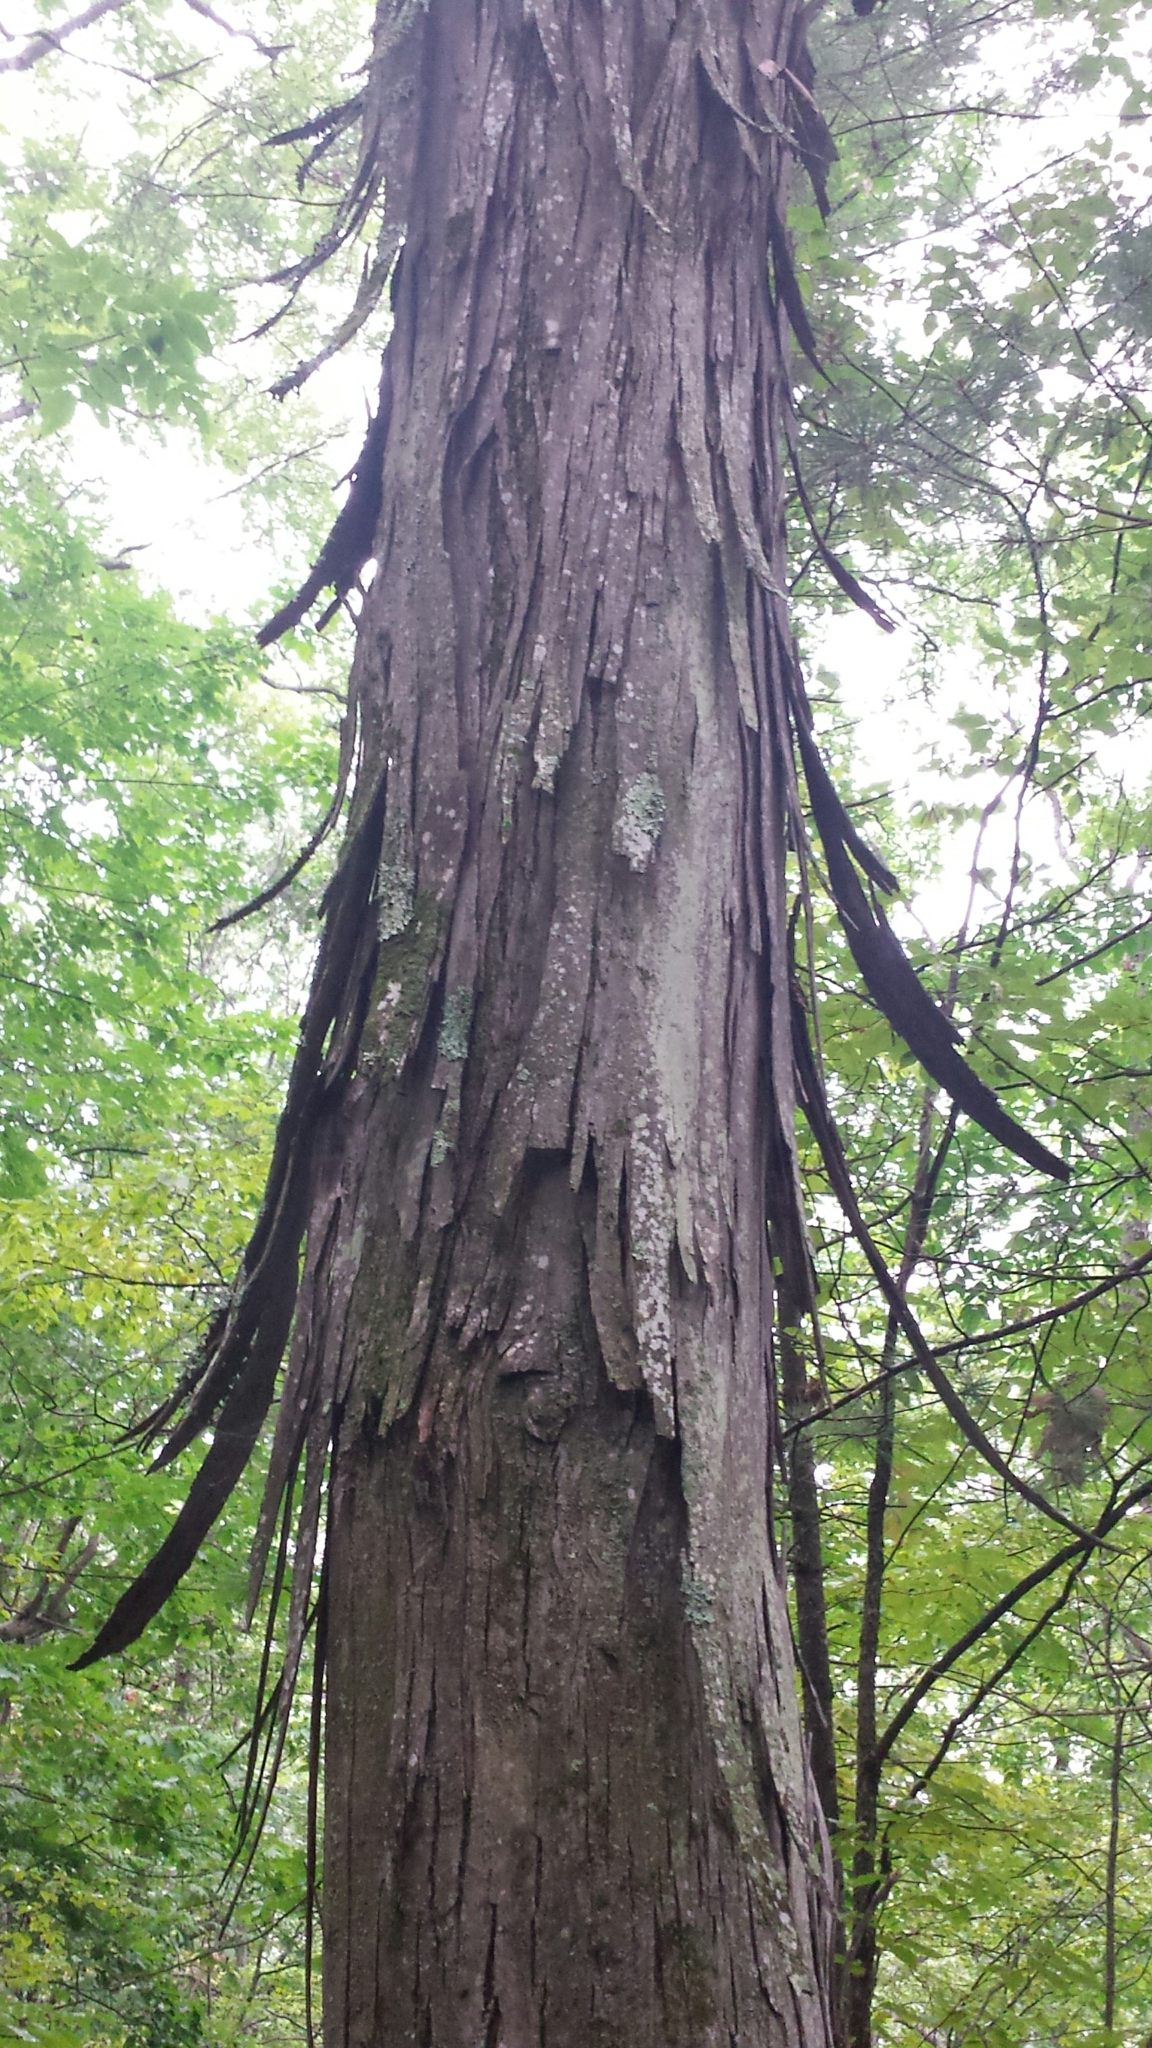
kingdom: Plantae
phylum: Tracheophyta
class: Magnoliopsida
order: Fagales
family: Juglandaceae
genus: Carya
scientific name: Carya ovata
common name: Shagbark hickory
